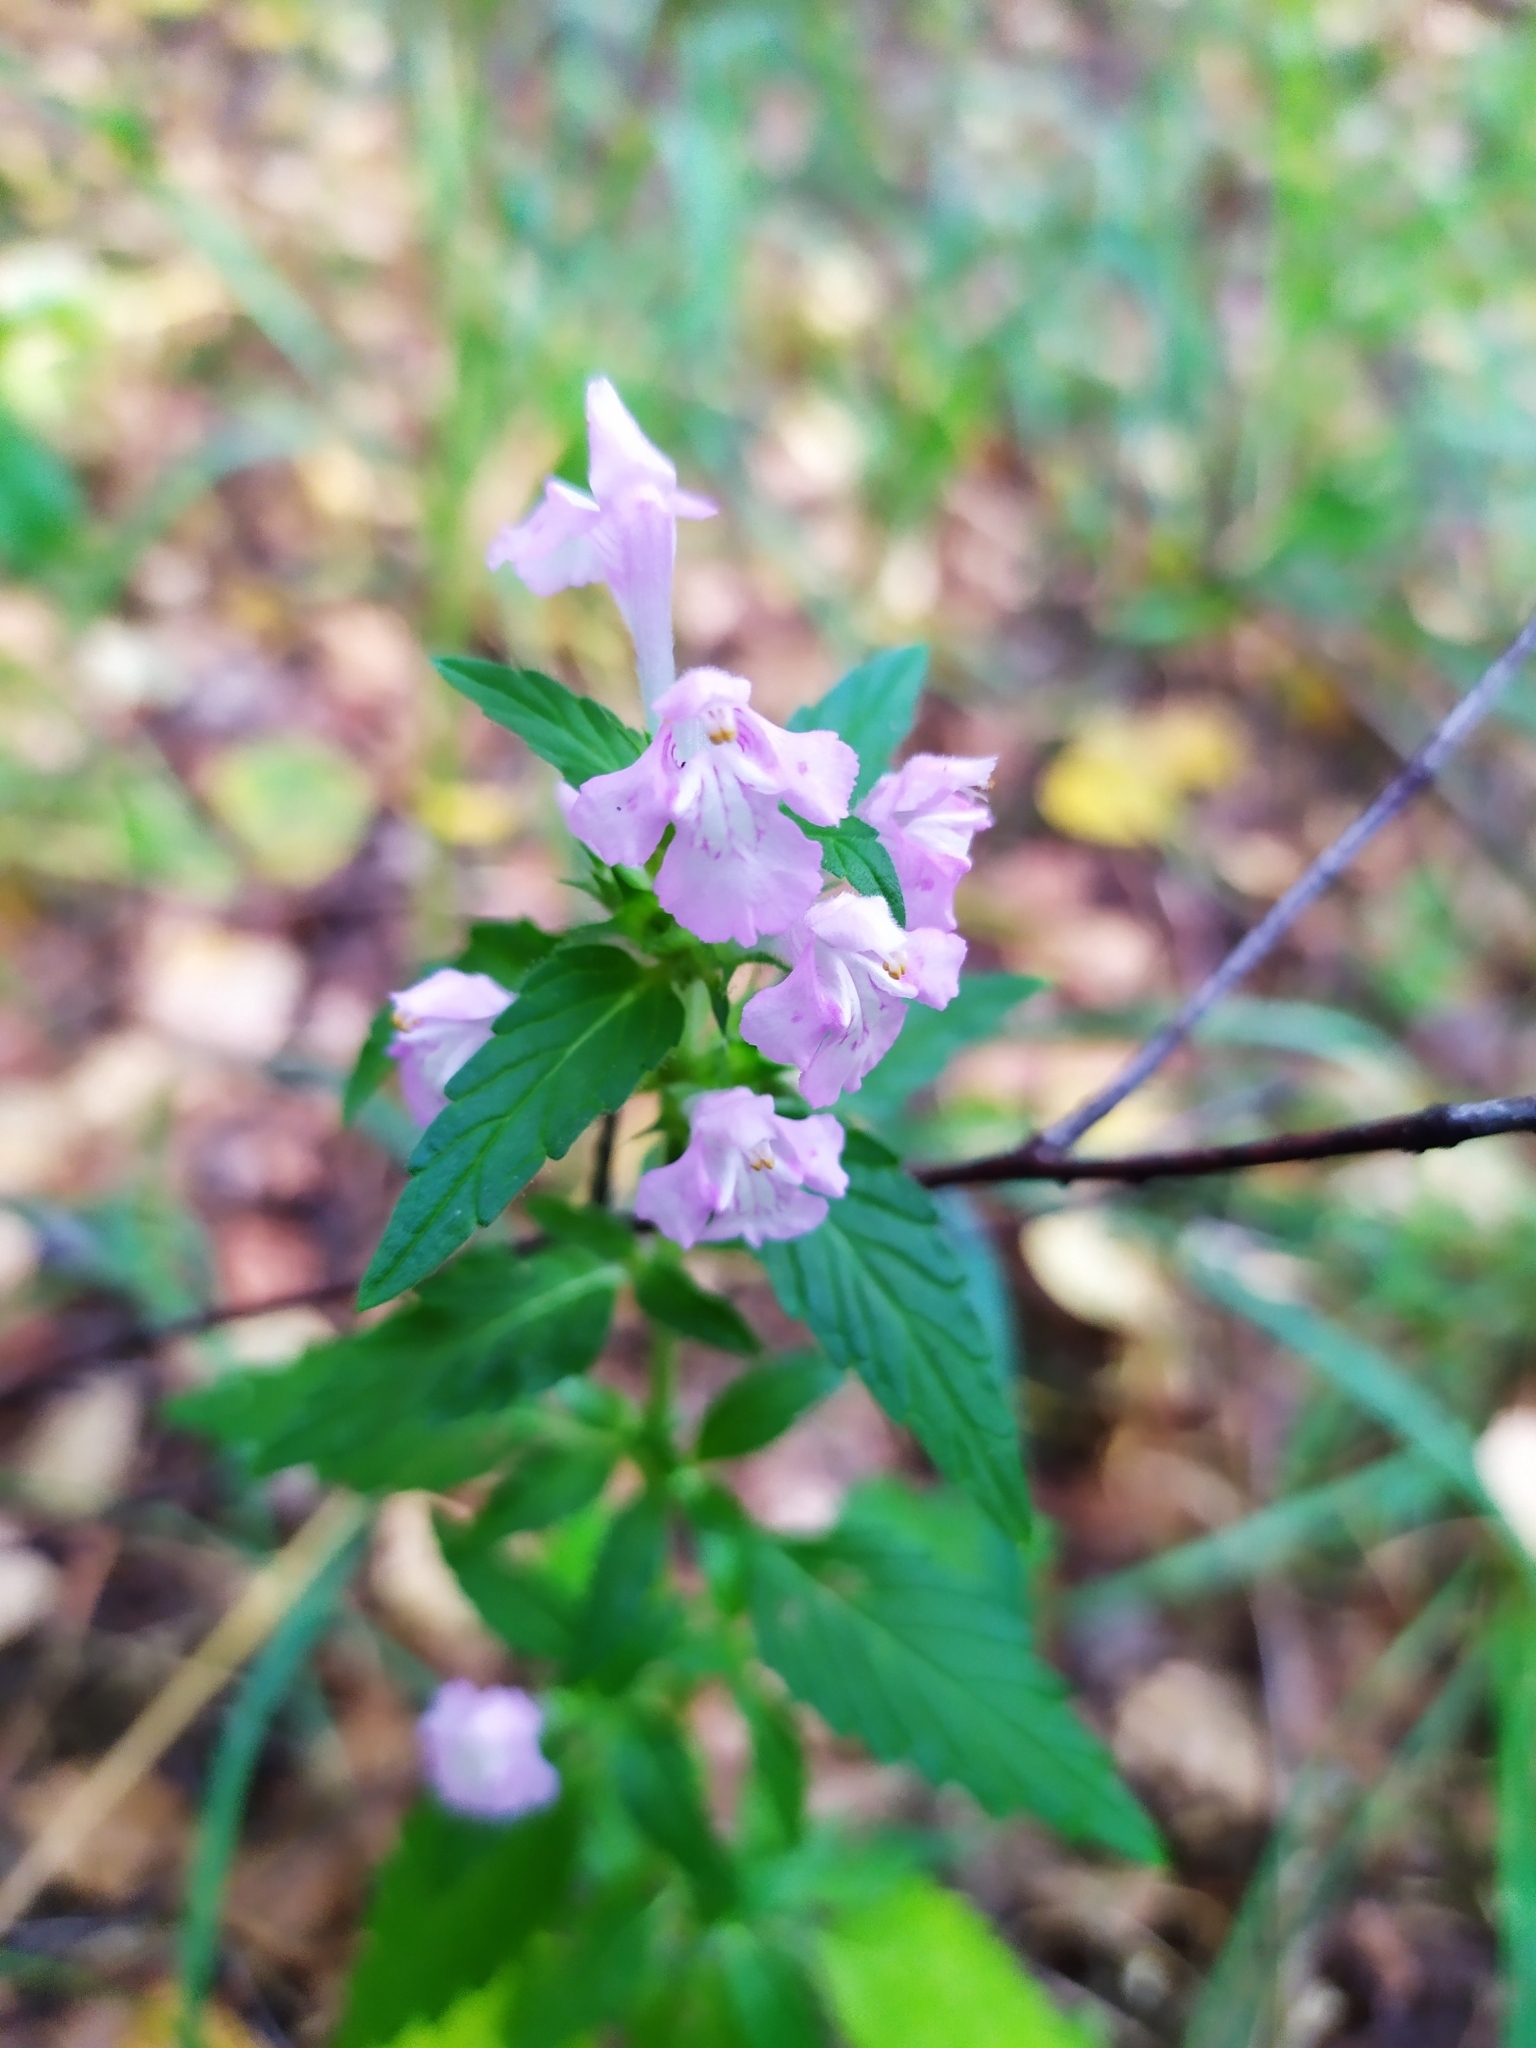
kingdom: Plantae
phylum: Tracheophyta
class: Magnoliopsida
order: Lamiales
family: Lamiaceae
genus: Galeopsis
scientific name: Galeopsis ladanum
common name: Broad-leaved hemp-nettle
